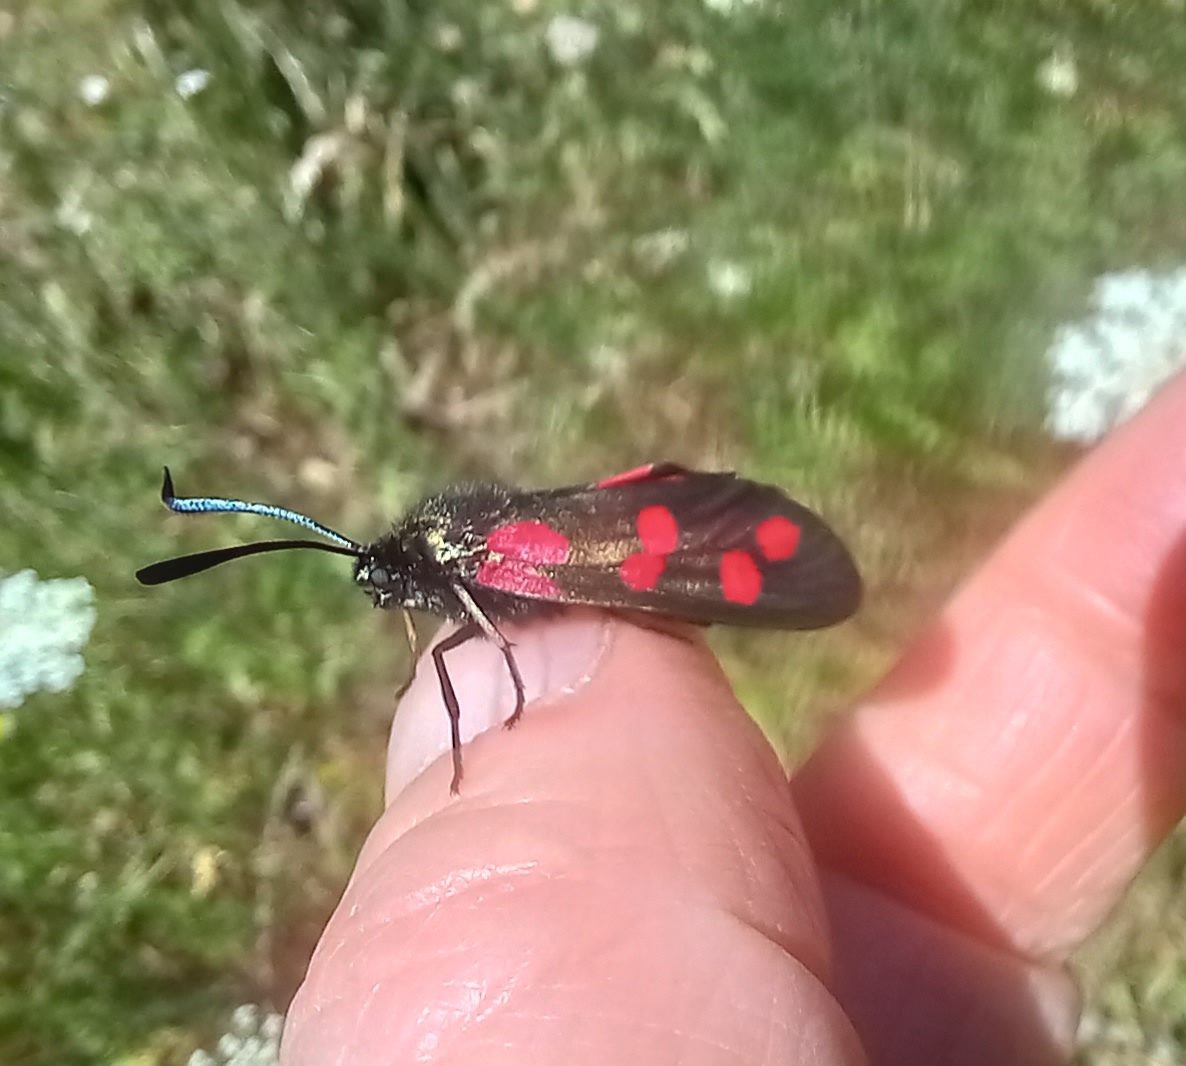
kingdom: Animalia
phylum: Arthropoda
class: Insecta
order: Lepidoptera
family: Zygaenidae
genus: Zygaena
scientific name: Zygaena filipendulae
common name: Six-spot burnet
